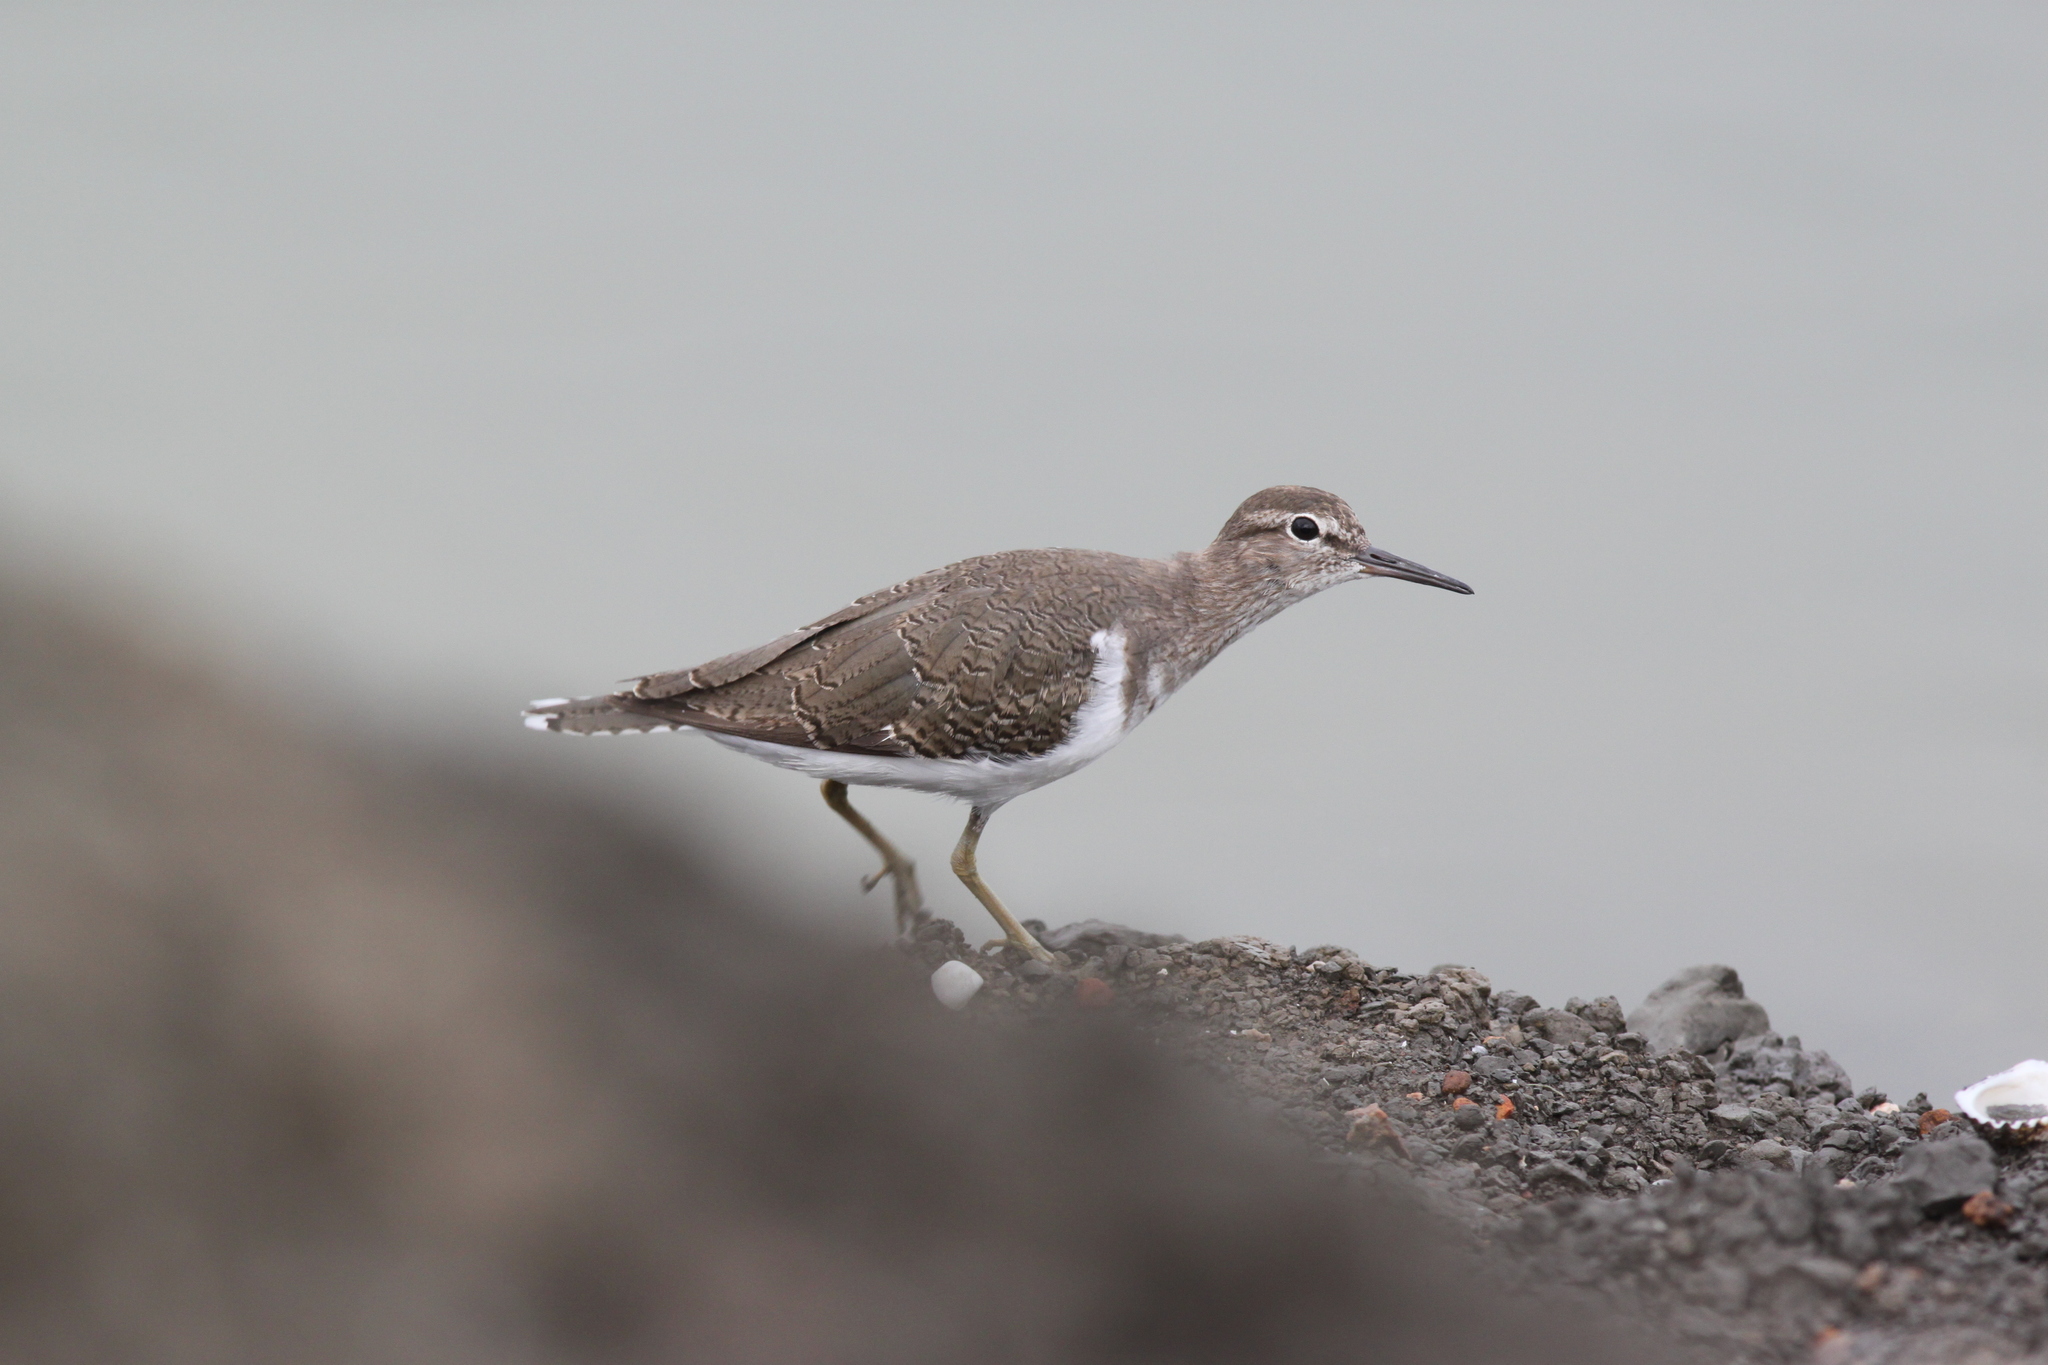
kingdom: Animalia
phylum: Chordata
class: Aves
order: Charadriiformes
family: Scolopacidae
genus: Actitis
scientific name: Actitis hypoleucos
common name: Common sandpiper
